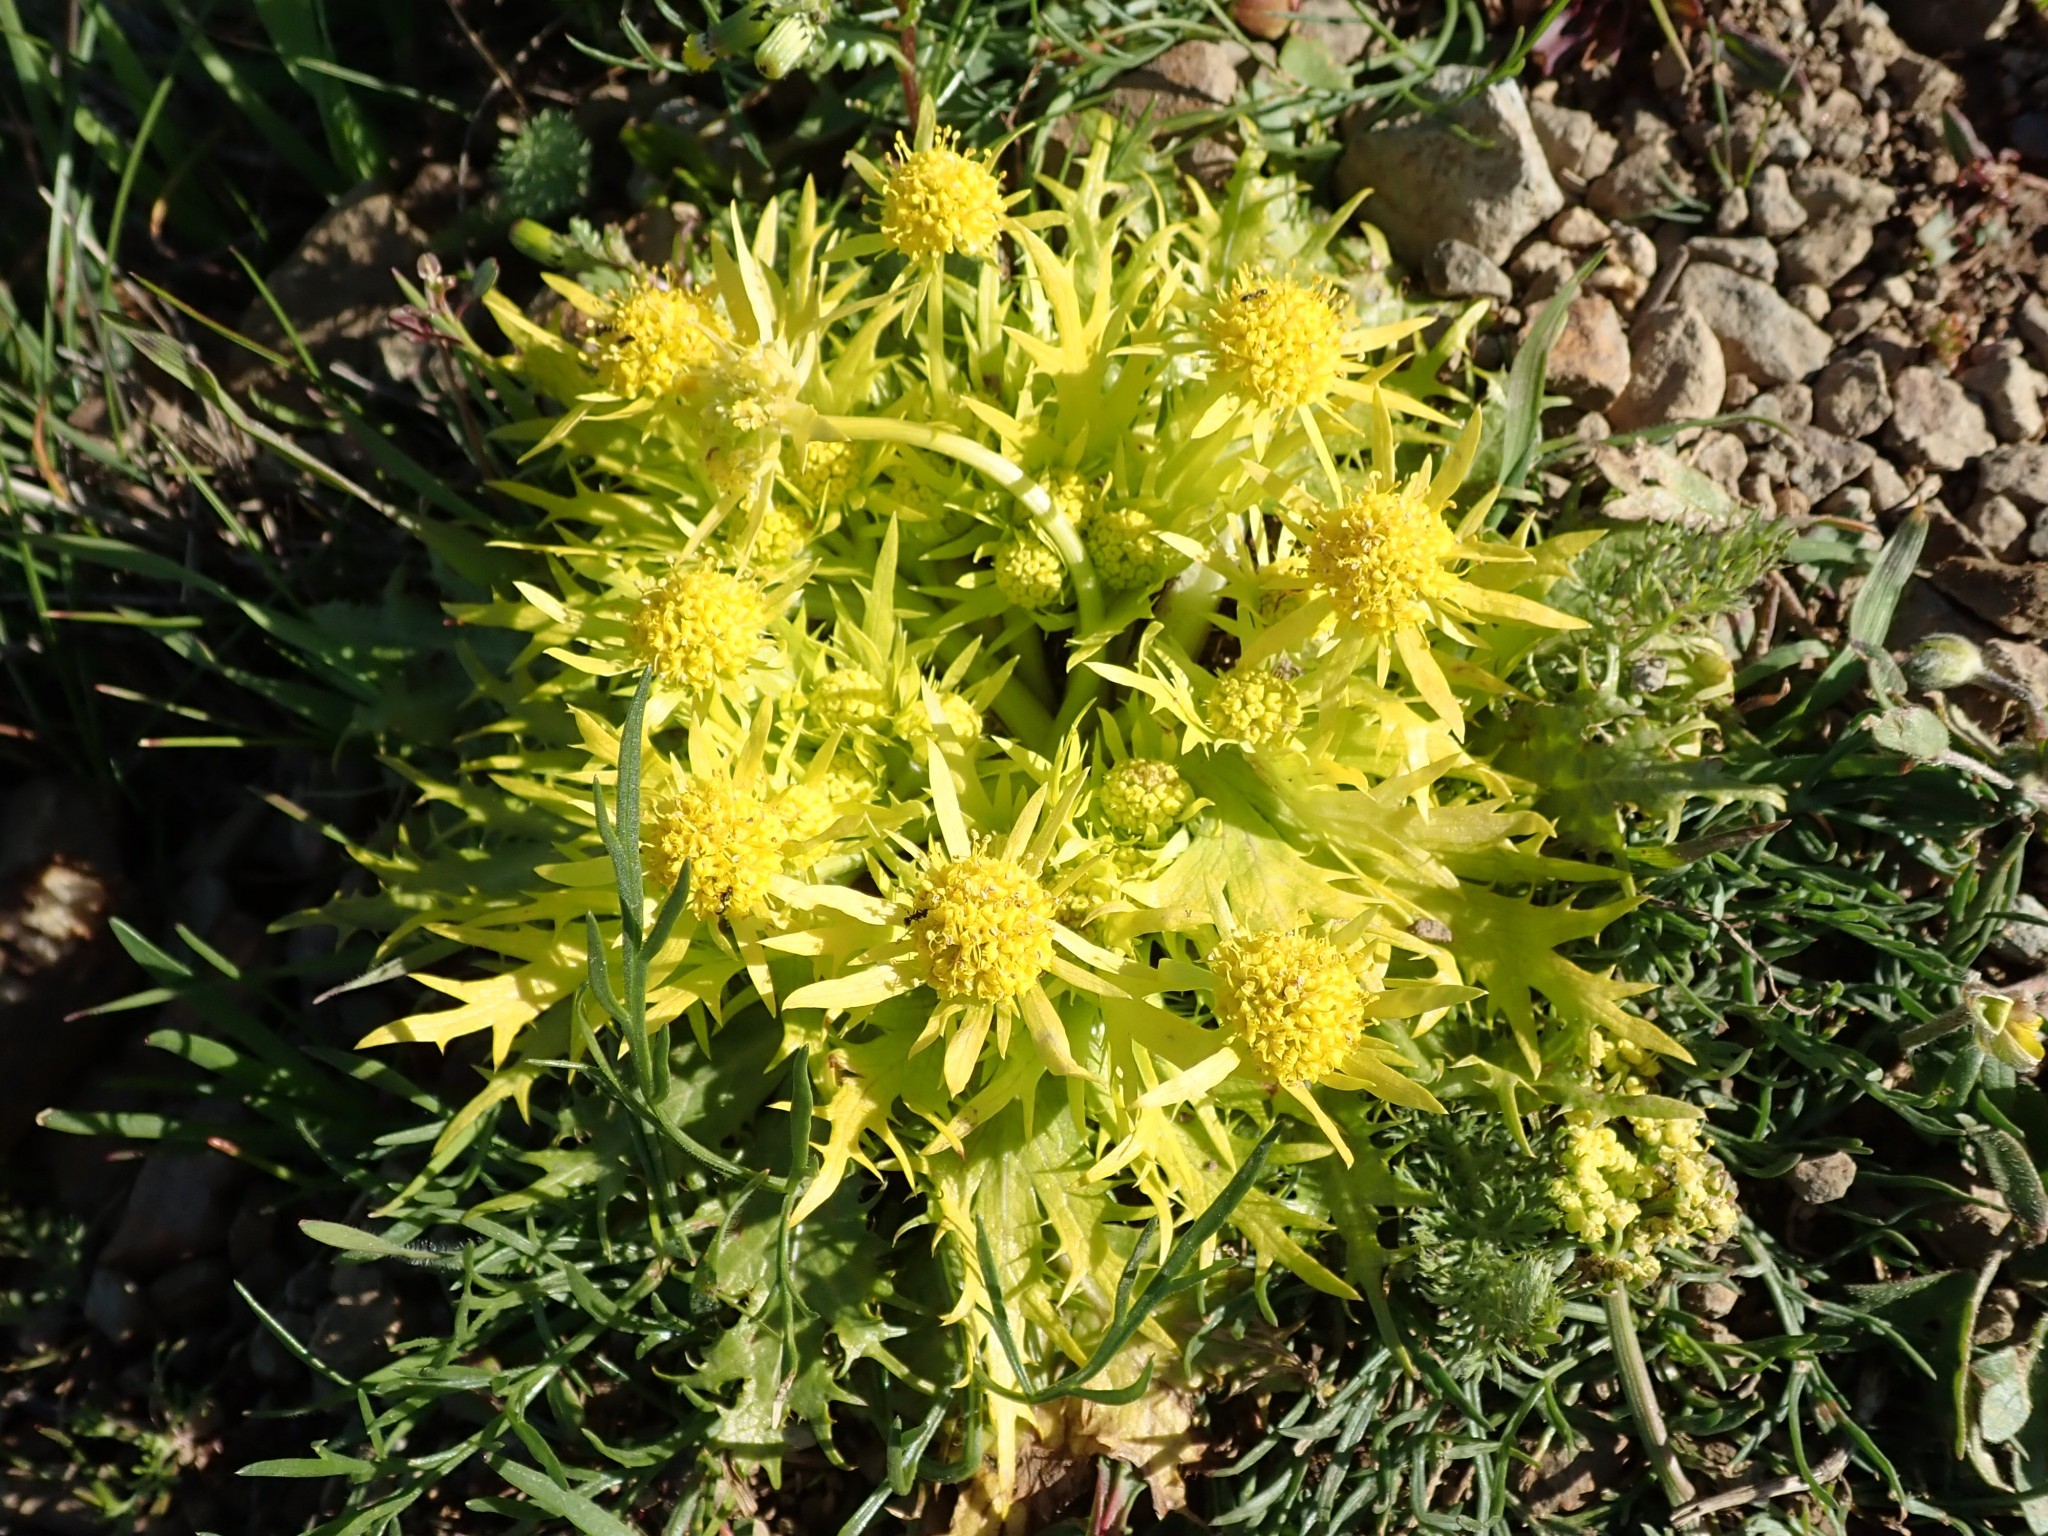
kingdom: Plantae
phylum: Tracheophyta
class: Magnoliopsida
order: Apiales
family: Apiaceae
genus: Sanicula
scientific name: Sanicula arctopoides
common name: Footsteps-of-spring
